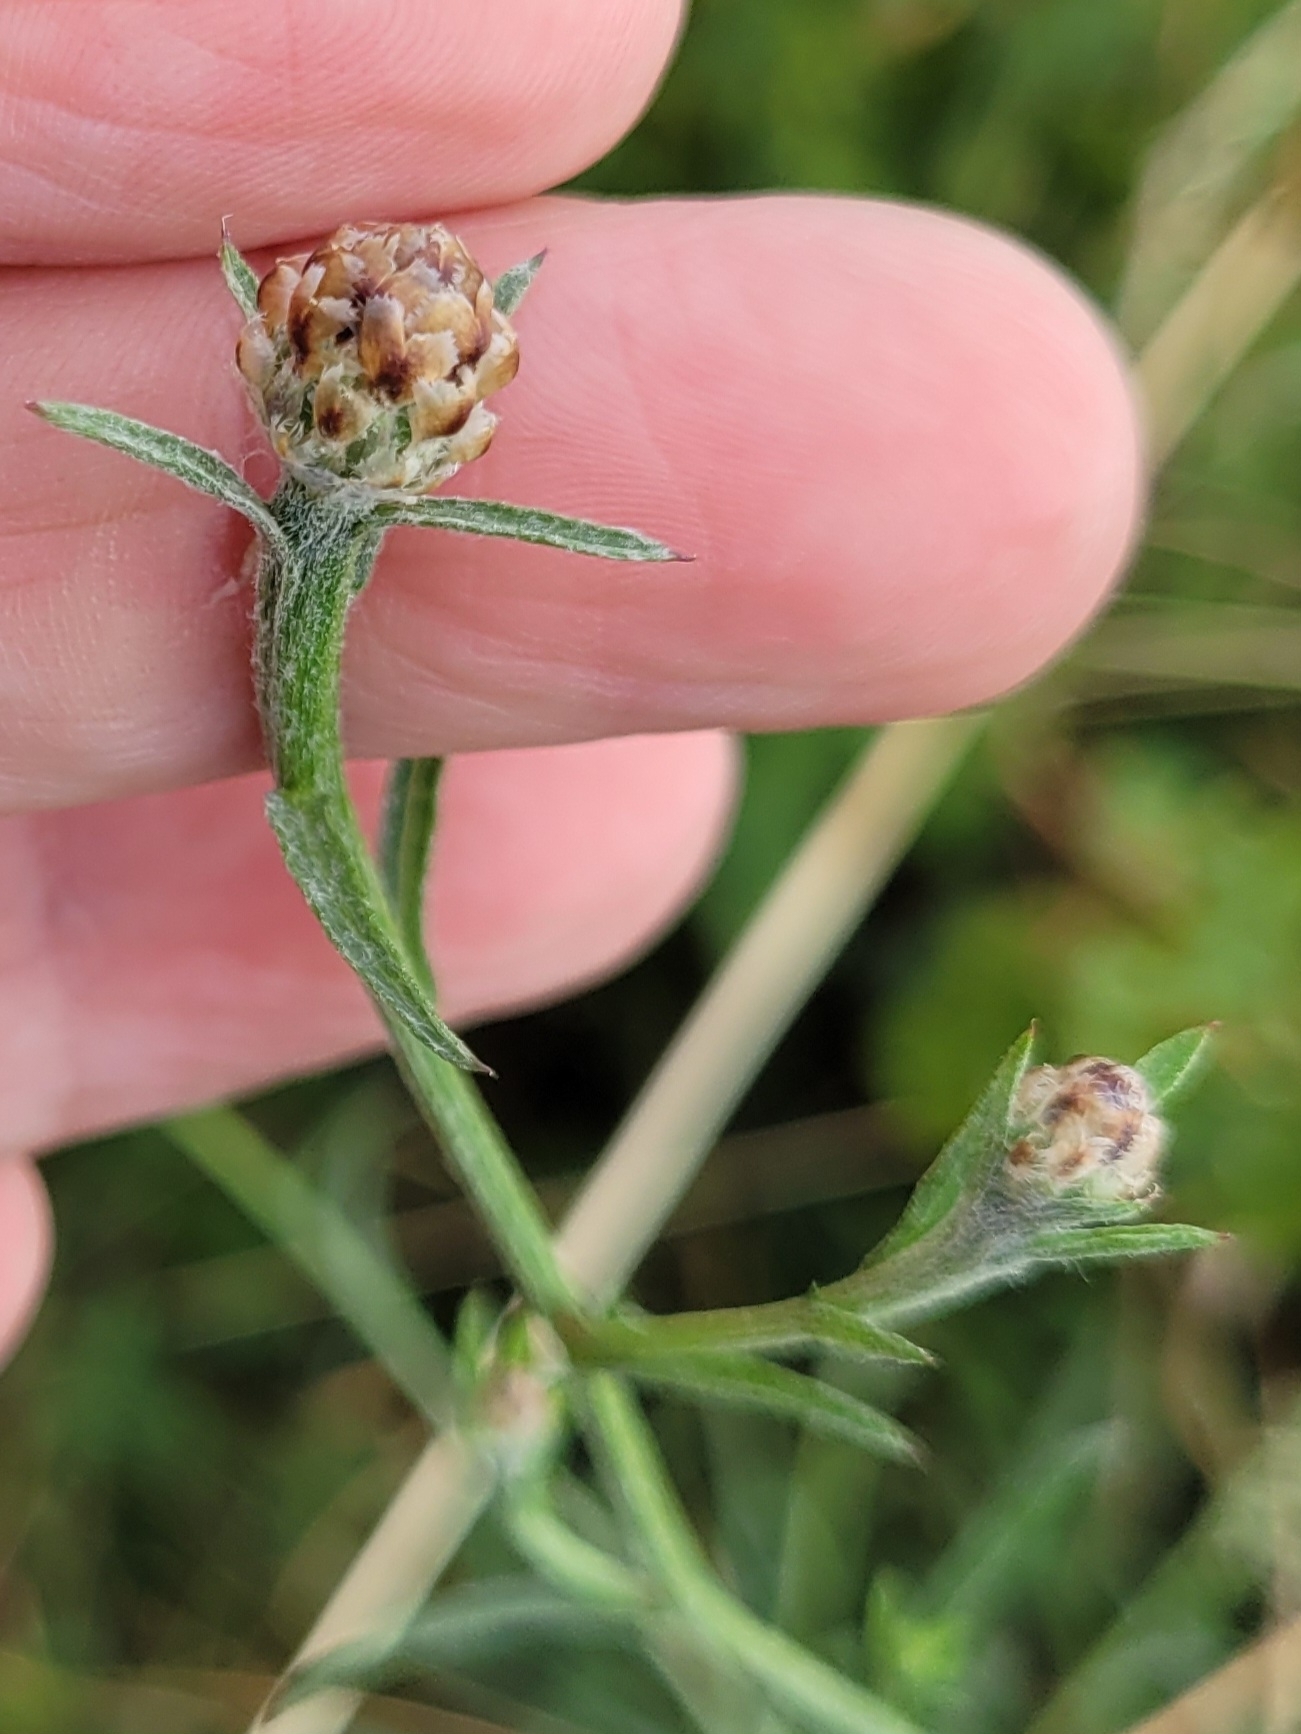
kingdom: Plantae
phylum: Tracheophyta
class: Magnoliopsida
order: Asterales
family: Asteraceae
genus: Centaurea
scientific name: Centaurea stoebe
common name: Spotted knapweed
